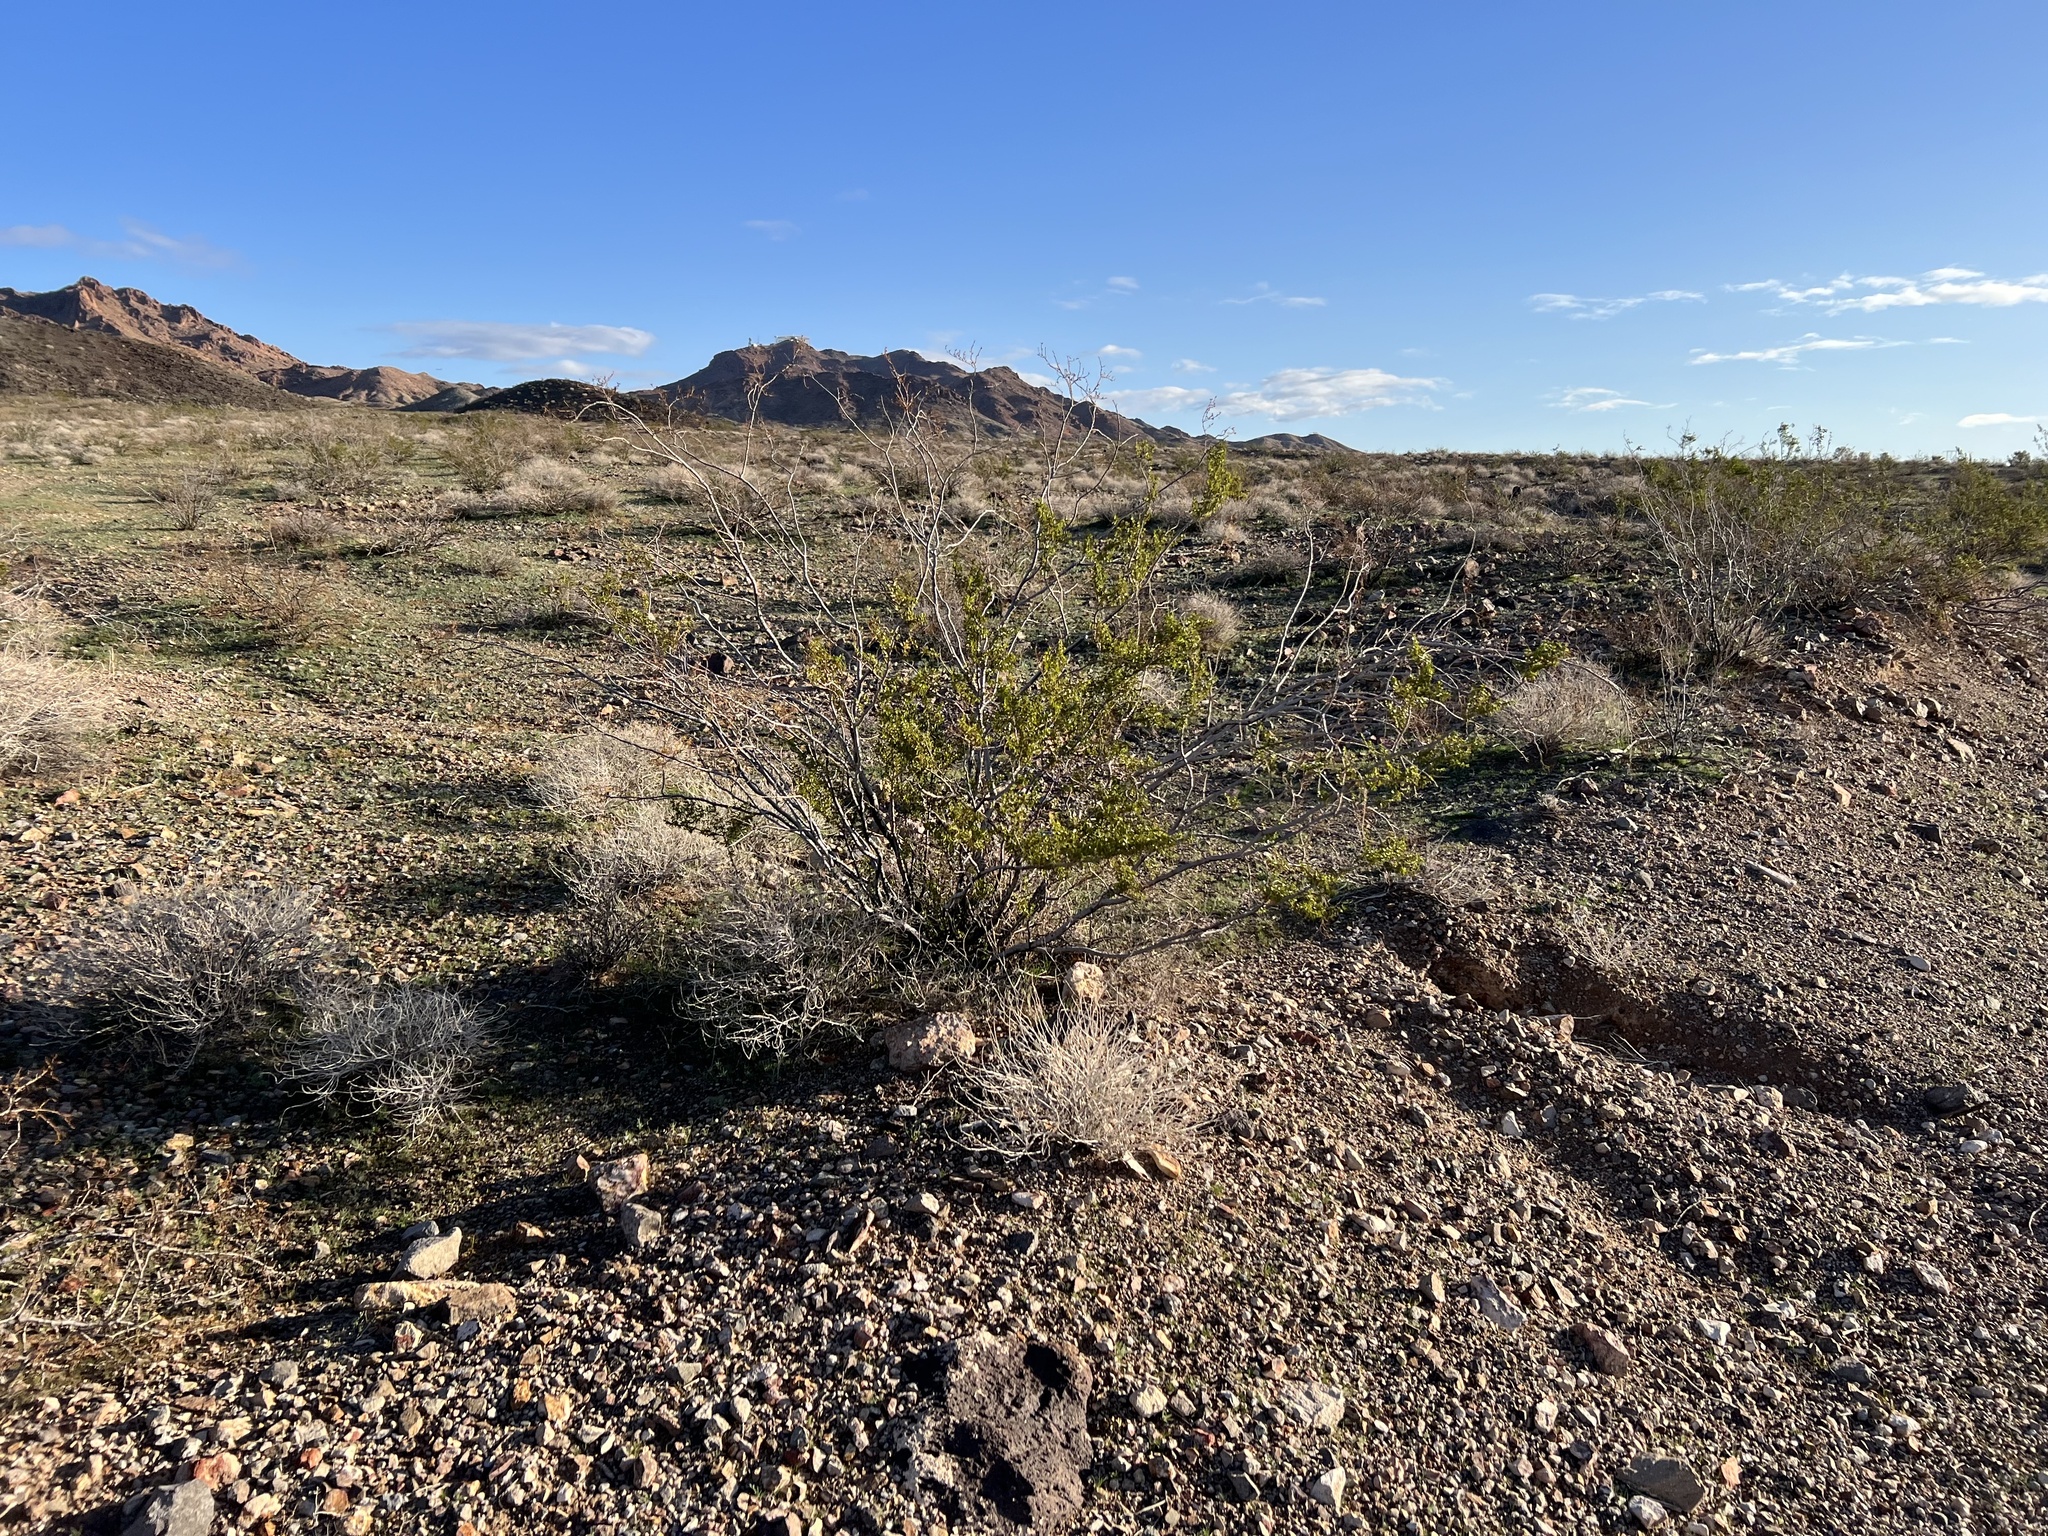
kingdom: Plantae
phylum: Tracheophyta
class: Magnoliopsida
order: Zygophyllales
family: Zygophyllaceae
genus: Larrea
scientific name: Larrea tridentata
